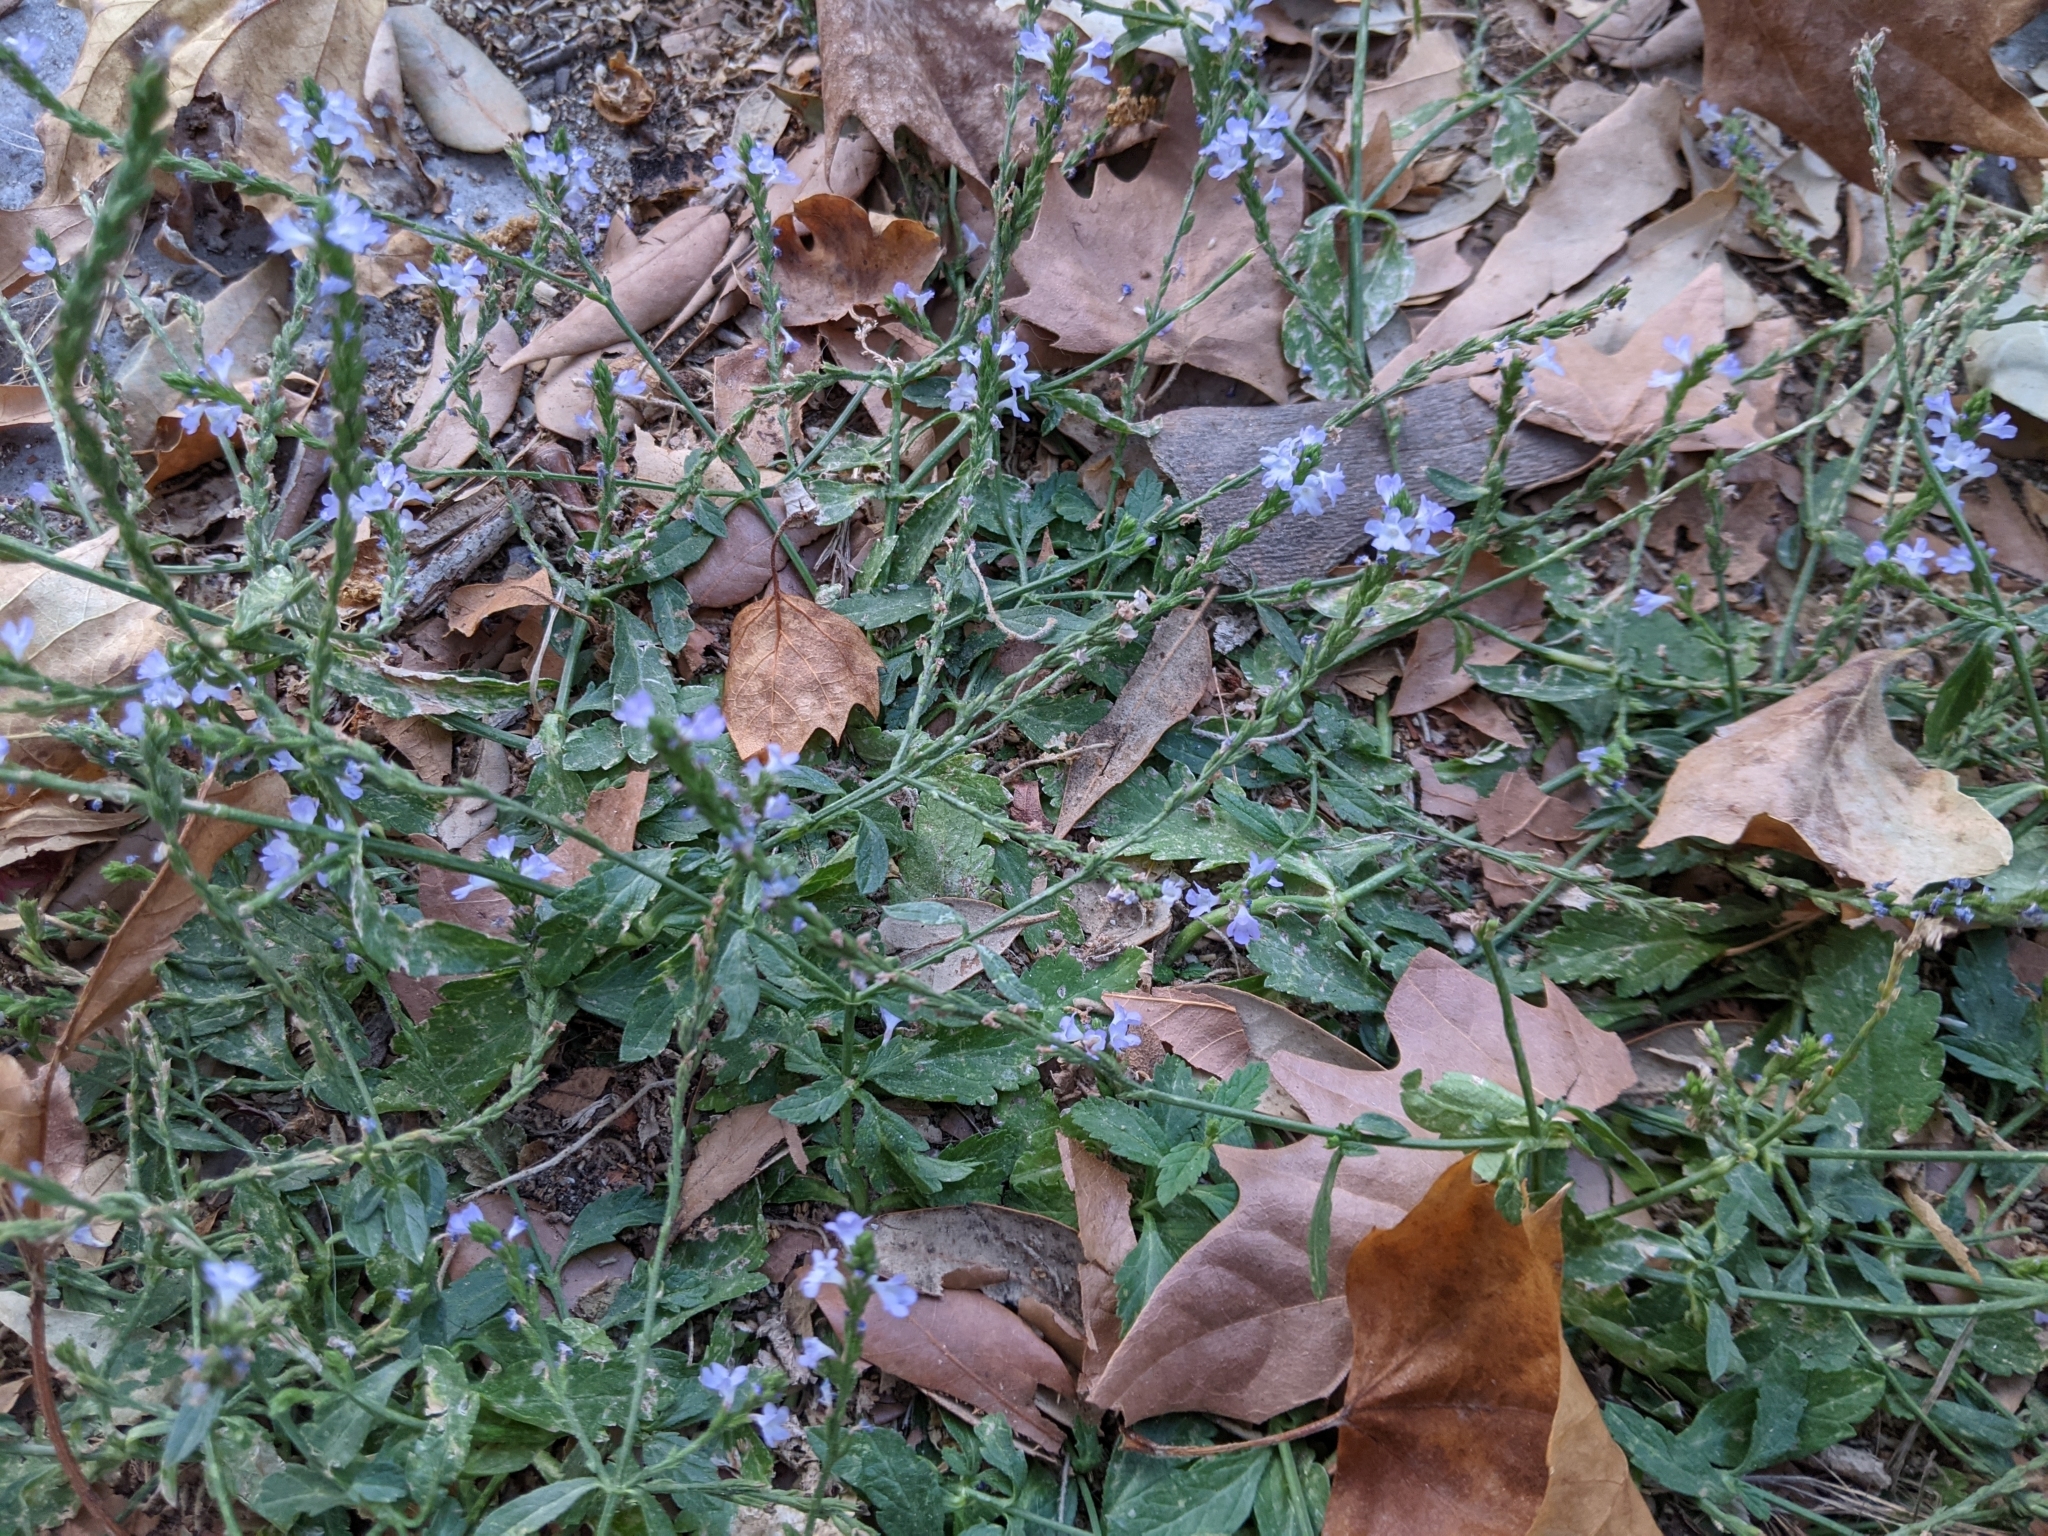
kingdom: Plantae
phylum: Tracheophyta
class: Magnoliopsida
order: Lamiales
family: Verbenaceae
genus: Verbena
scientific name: Verbena officinalis
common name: Vervain
